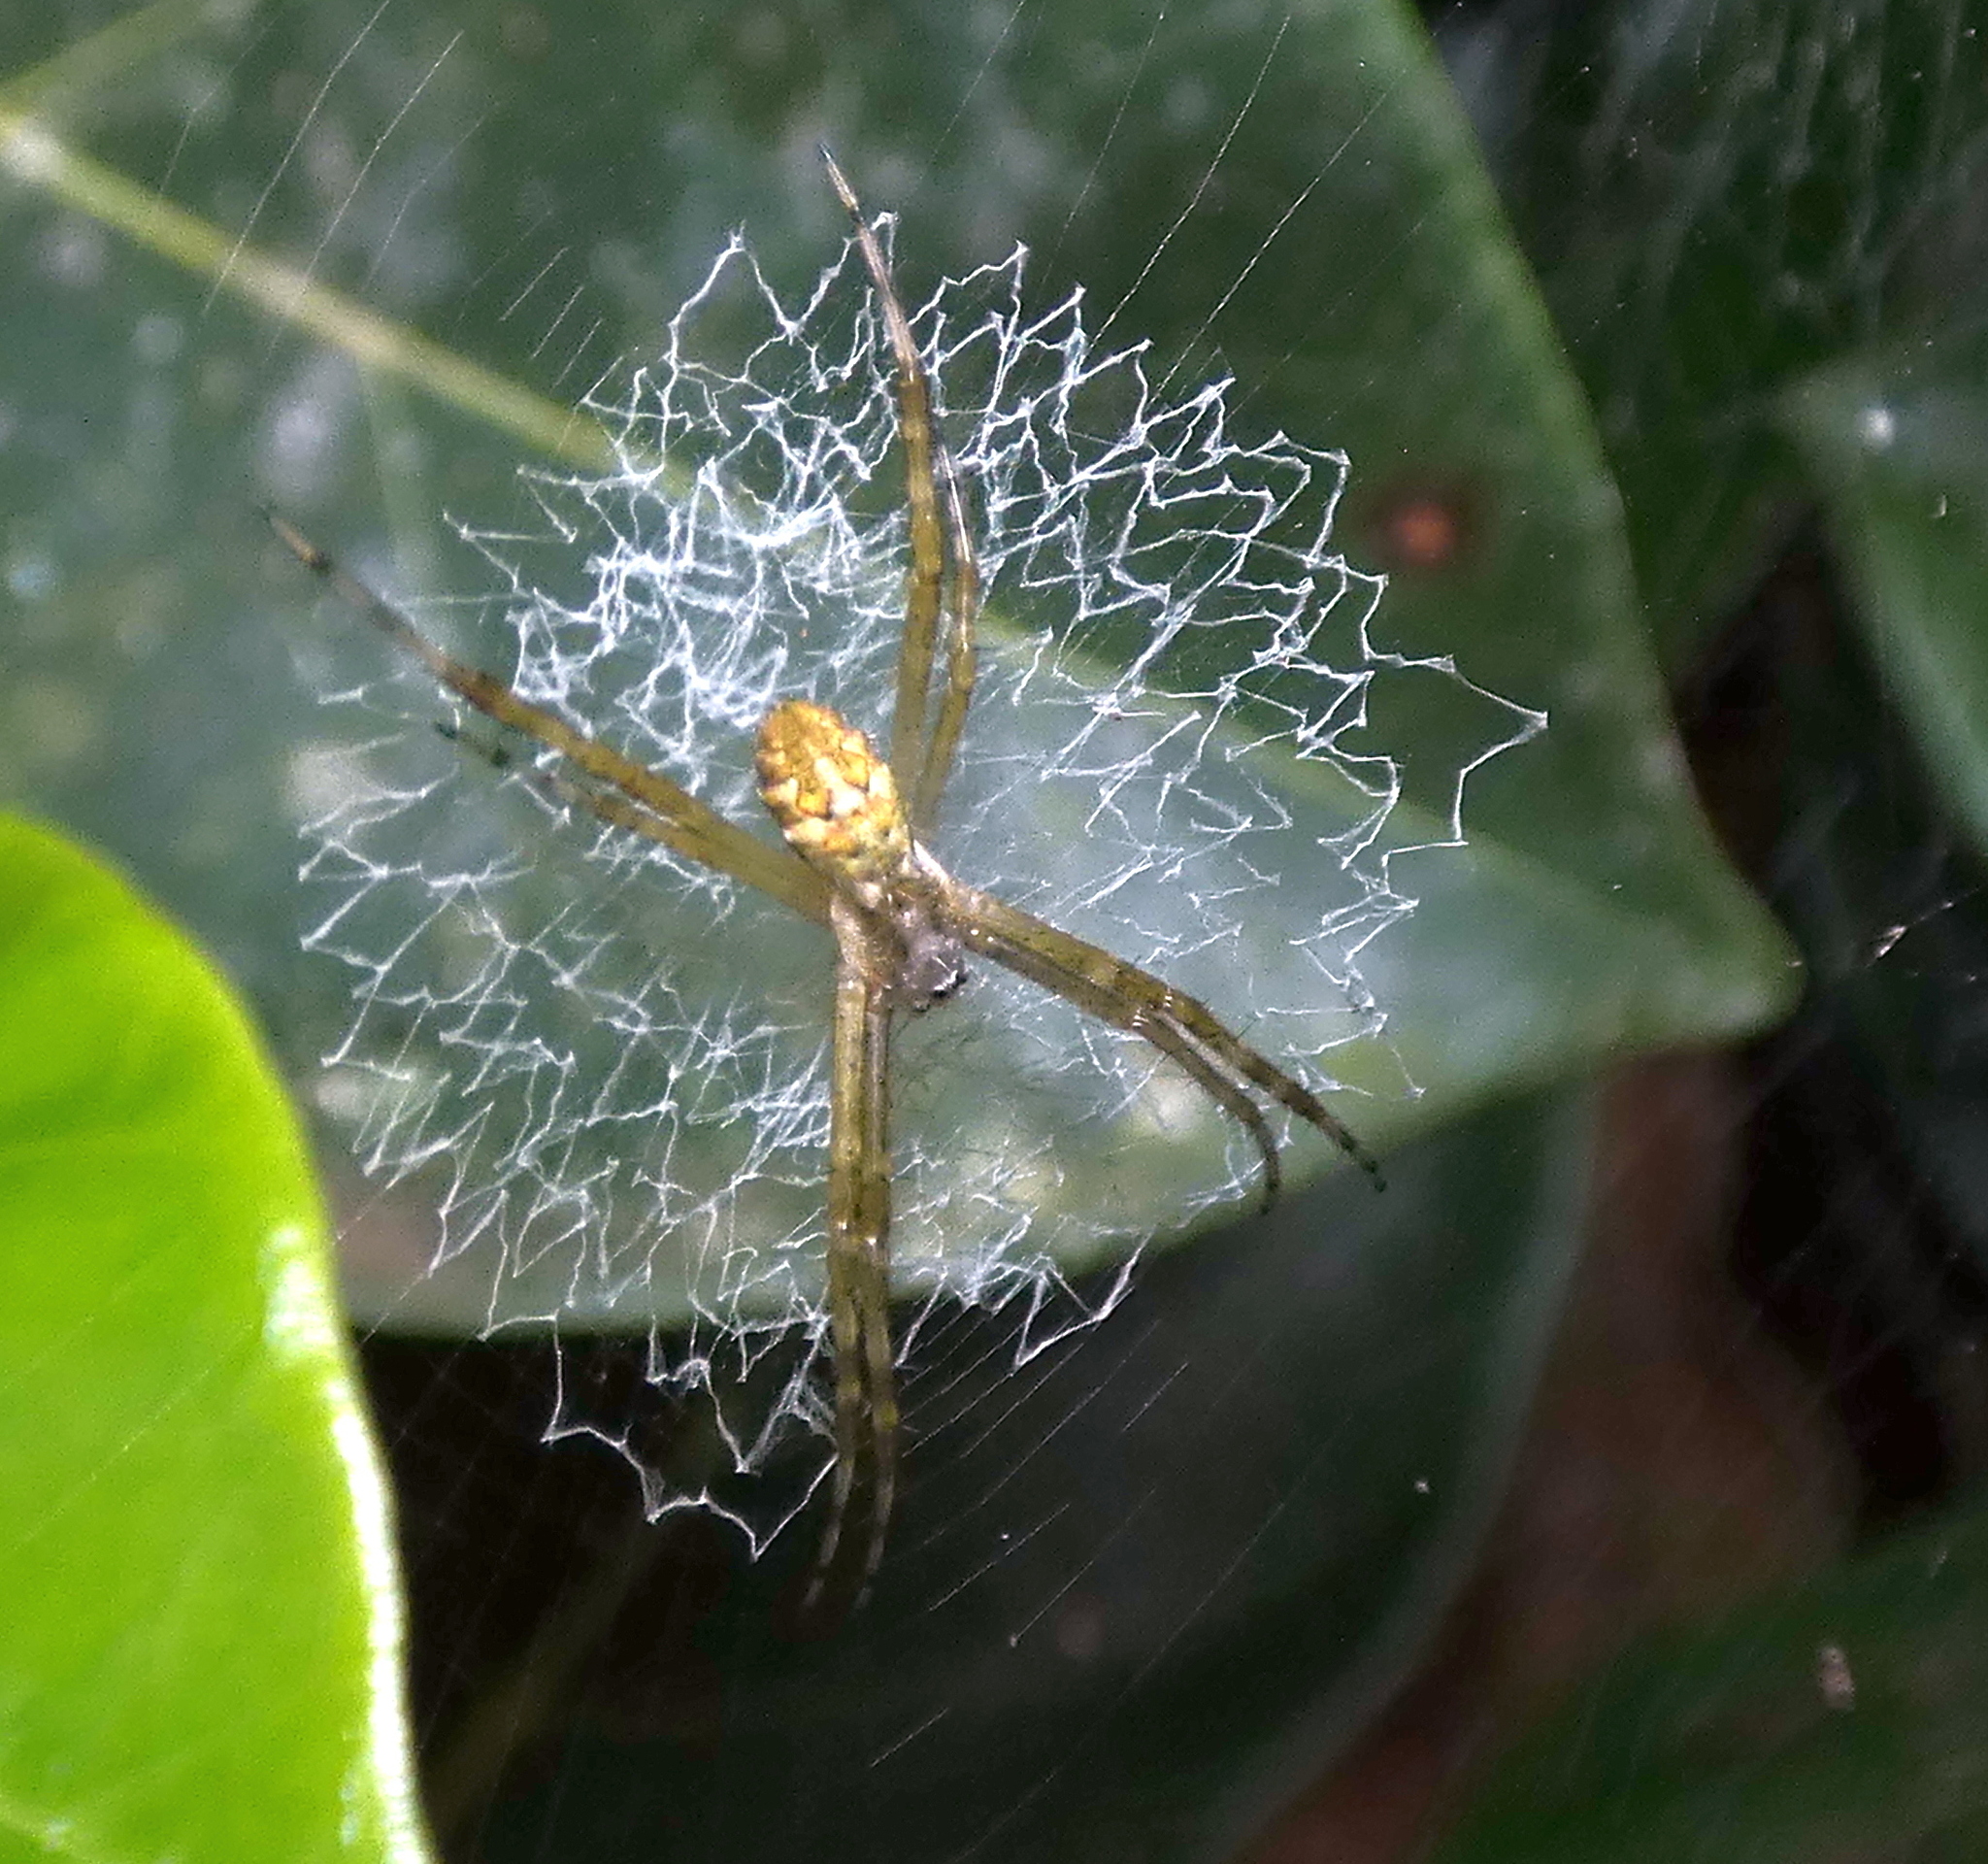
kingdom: Animalia
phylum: Arthropoda
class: Arachnida
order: Araneae
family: Araneidae
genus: Argiope
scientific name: Argiope argentata
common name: Orb weavers
